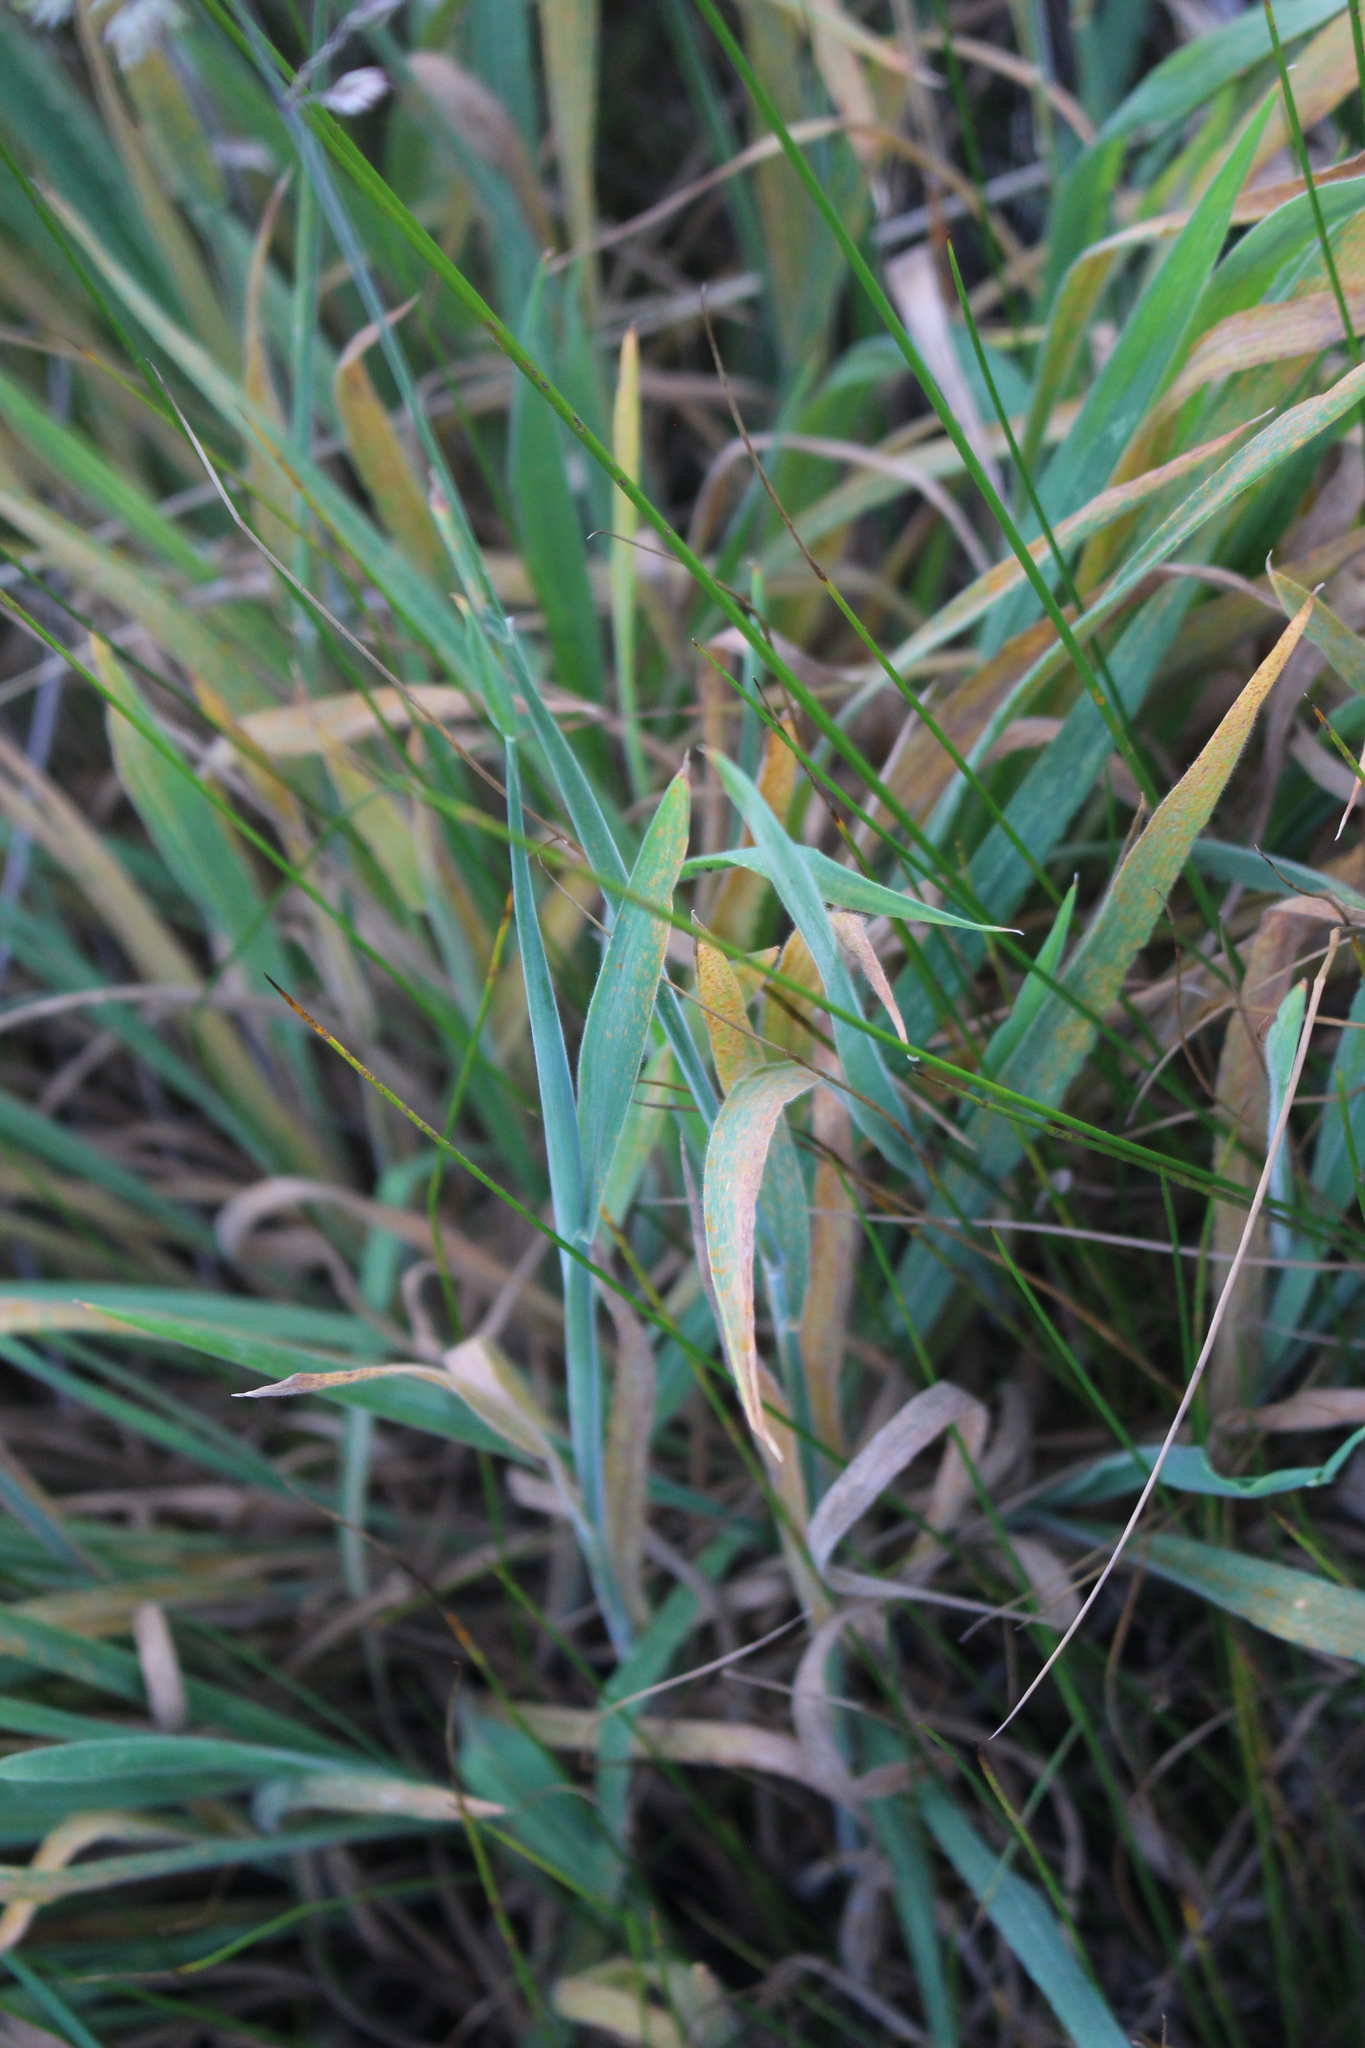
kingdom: Plantae
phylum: Tracheophyta
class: Liliopsida
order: Poales
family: Poaceae
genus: Holcus
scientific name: Holcus lanatus
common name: Yorkshire-fog
